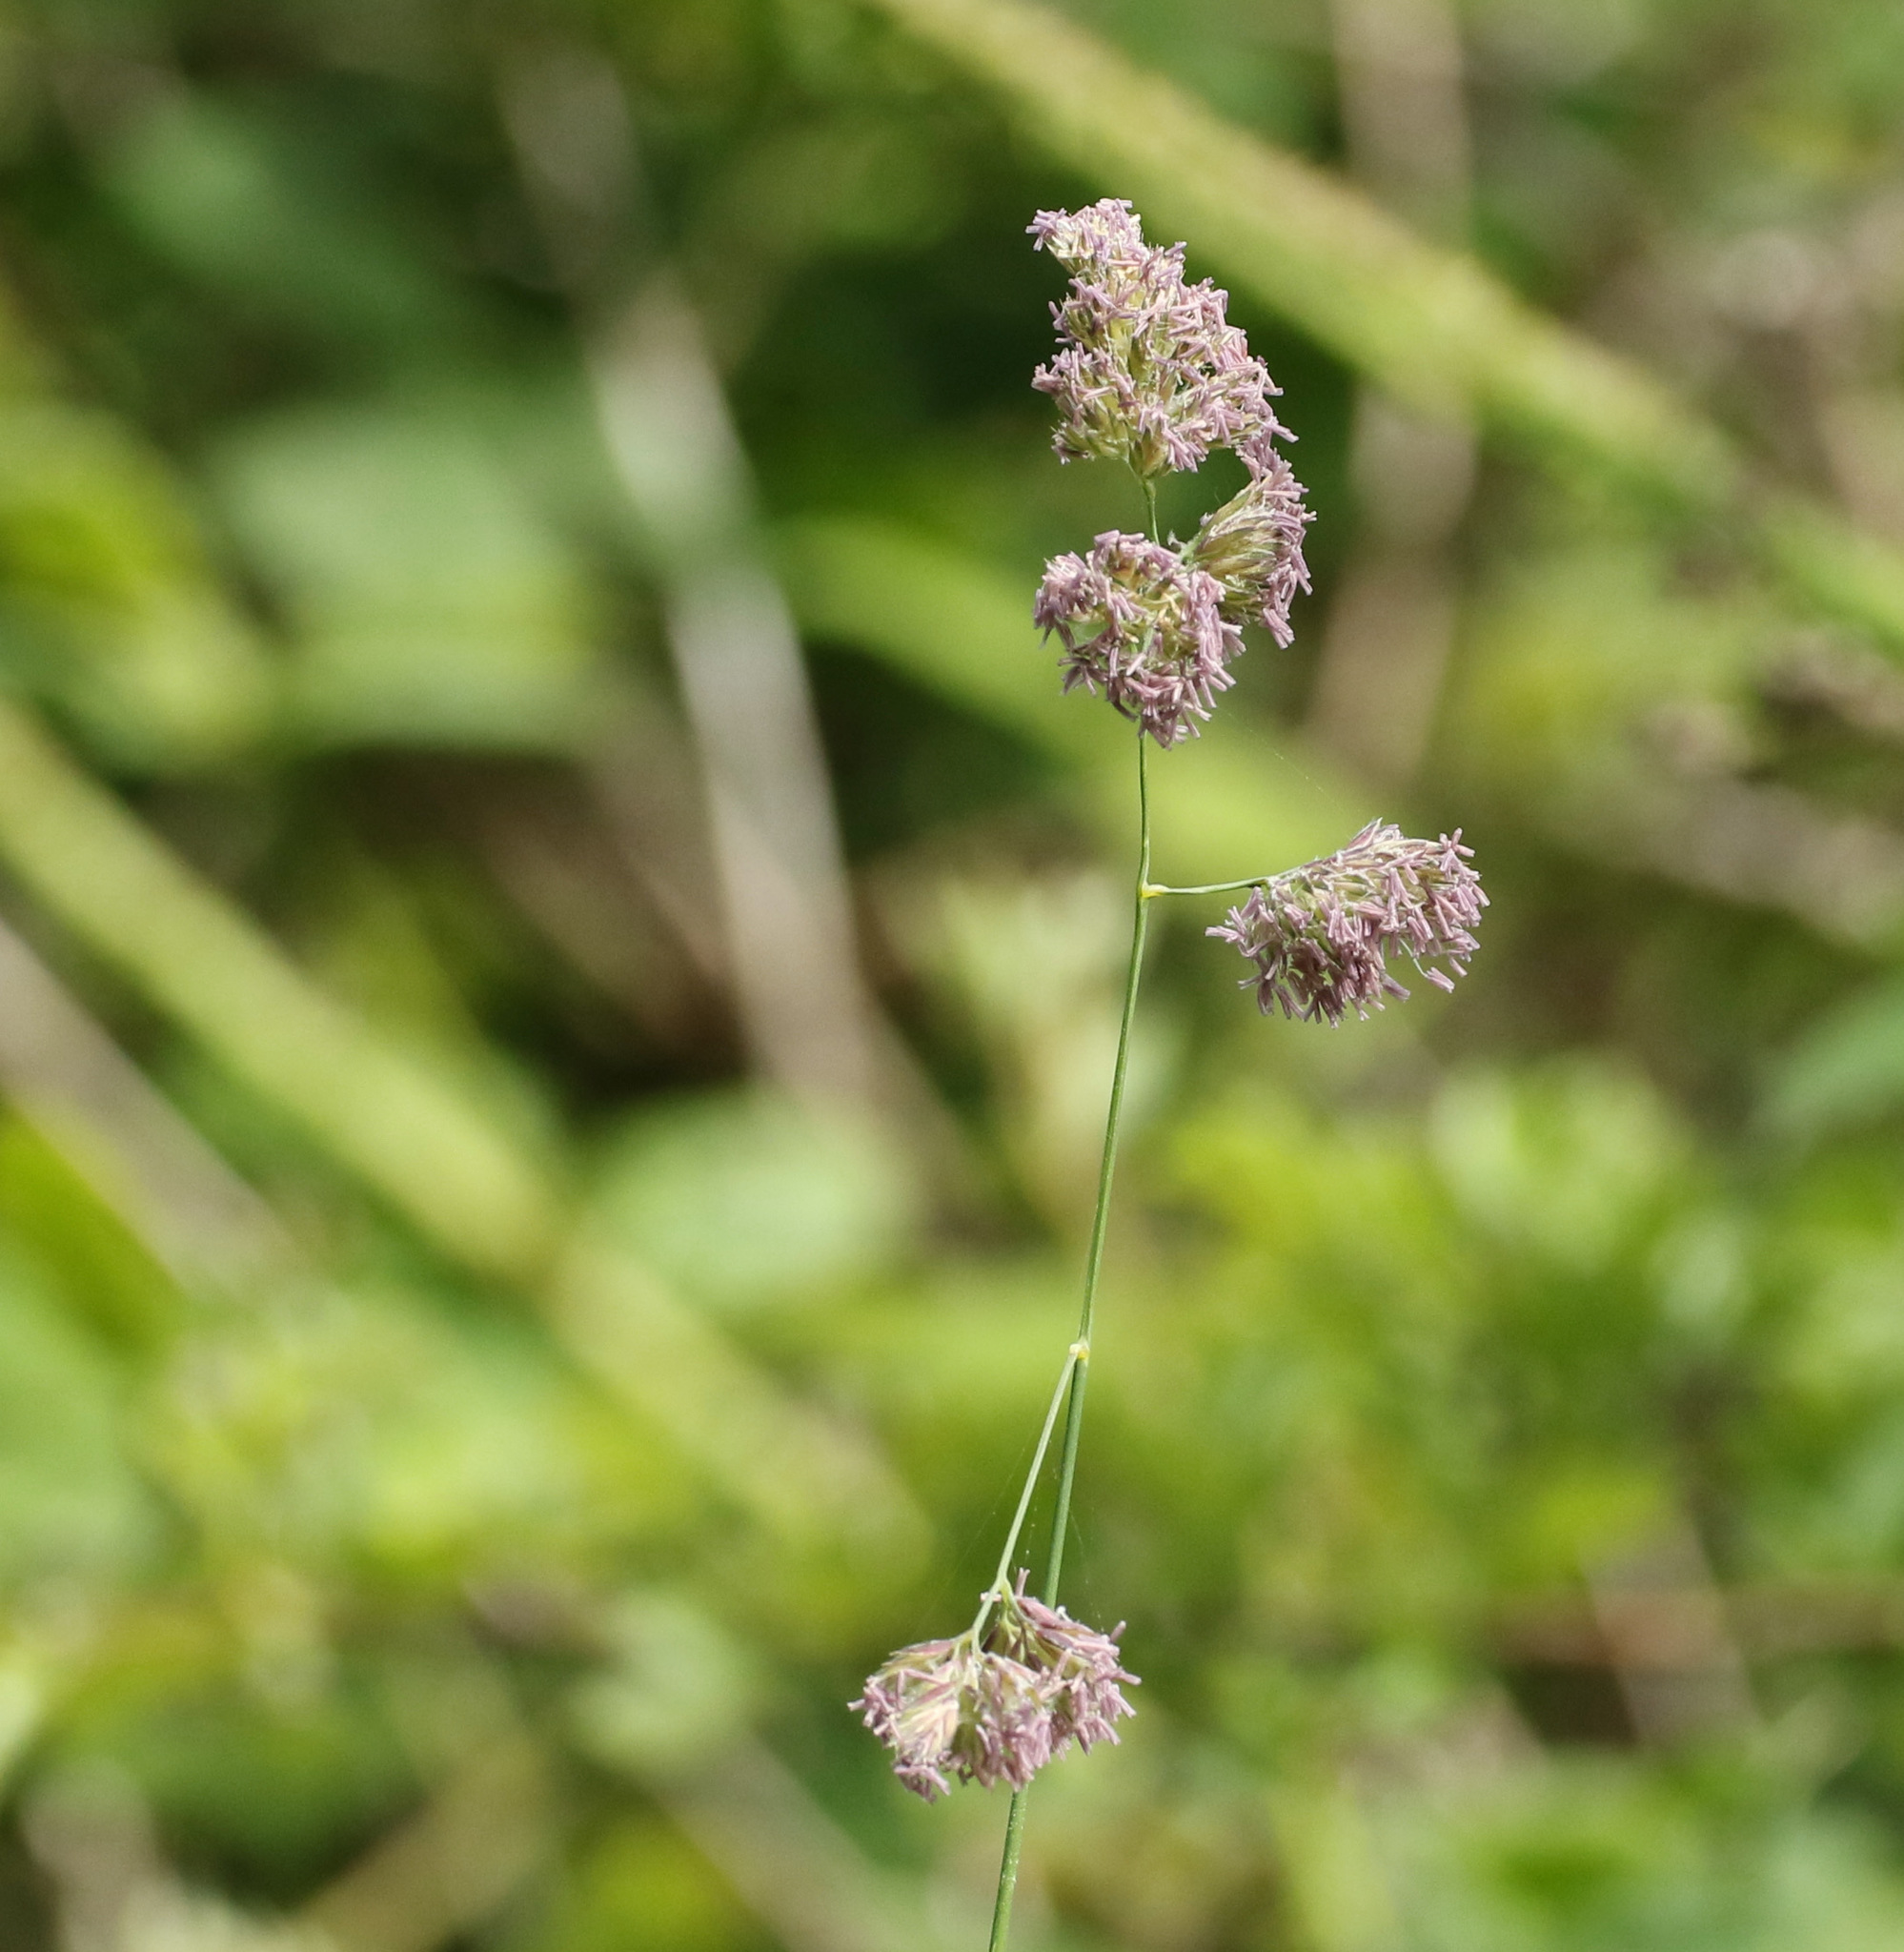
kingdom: Plantae
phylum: Tracheophyta
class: Liliopsida
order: Poales
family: Poaceae
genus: Dactylis
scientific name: Dactylis glomerata
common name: Orchardgrass
